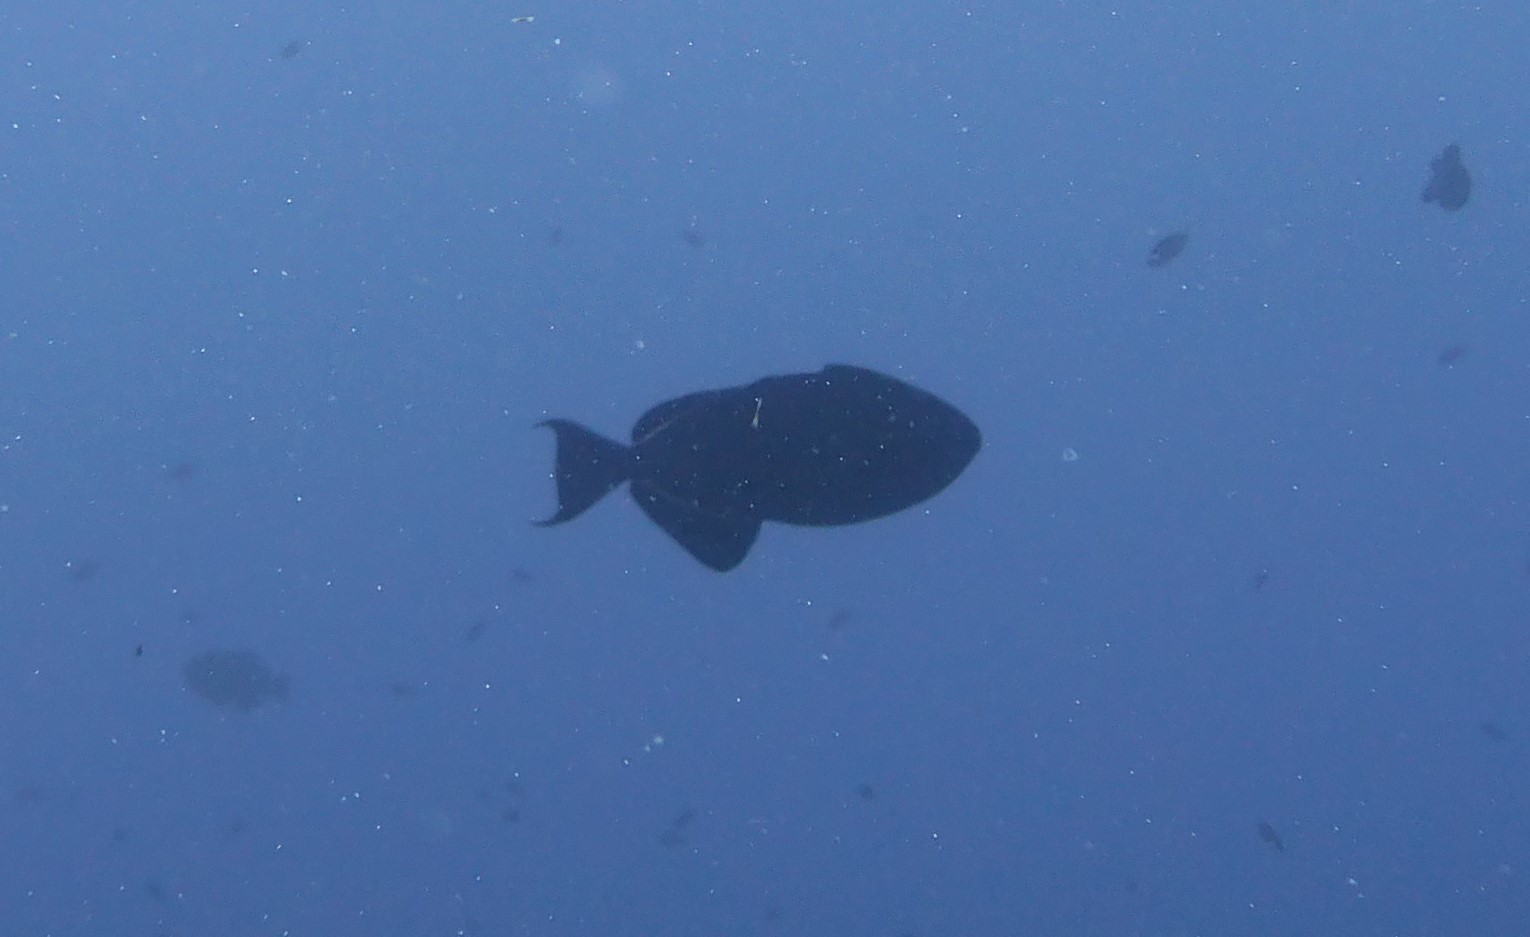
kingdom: Animalia
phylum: Chordata
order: Tetraodontiformes
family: Balistidae
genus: Melichthys
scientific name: Melichthys niger
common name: Black durgon
